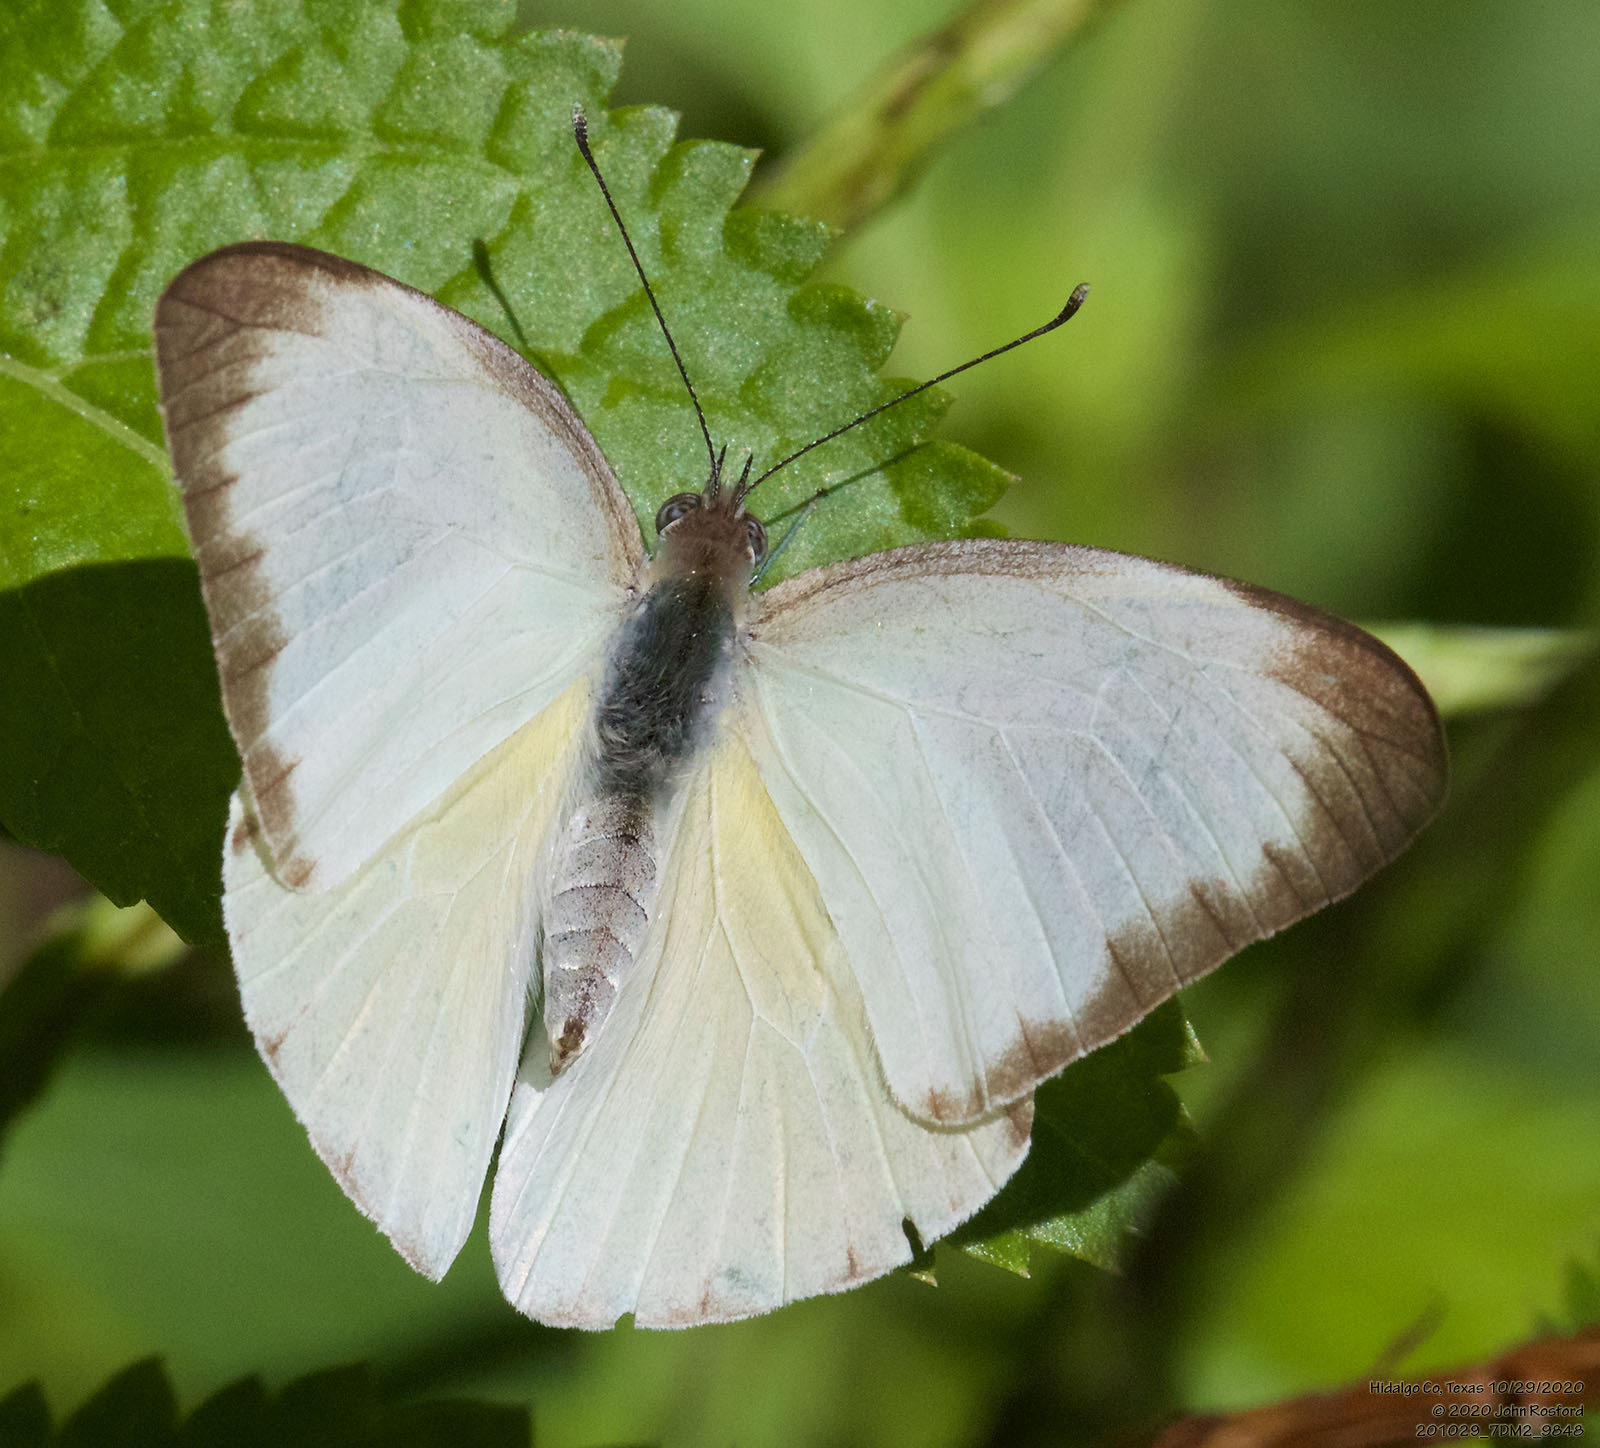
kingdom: Animalia
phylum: Arthropoda
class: Insecta
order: Lepidoptera
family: Pieridae
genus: Glutophrissa
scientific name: Glutophrissa drusilla
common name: Florida white
